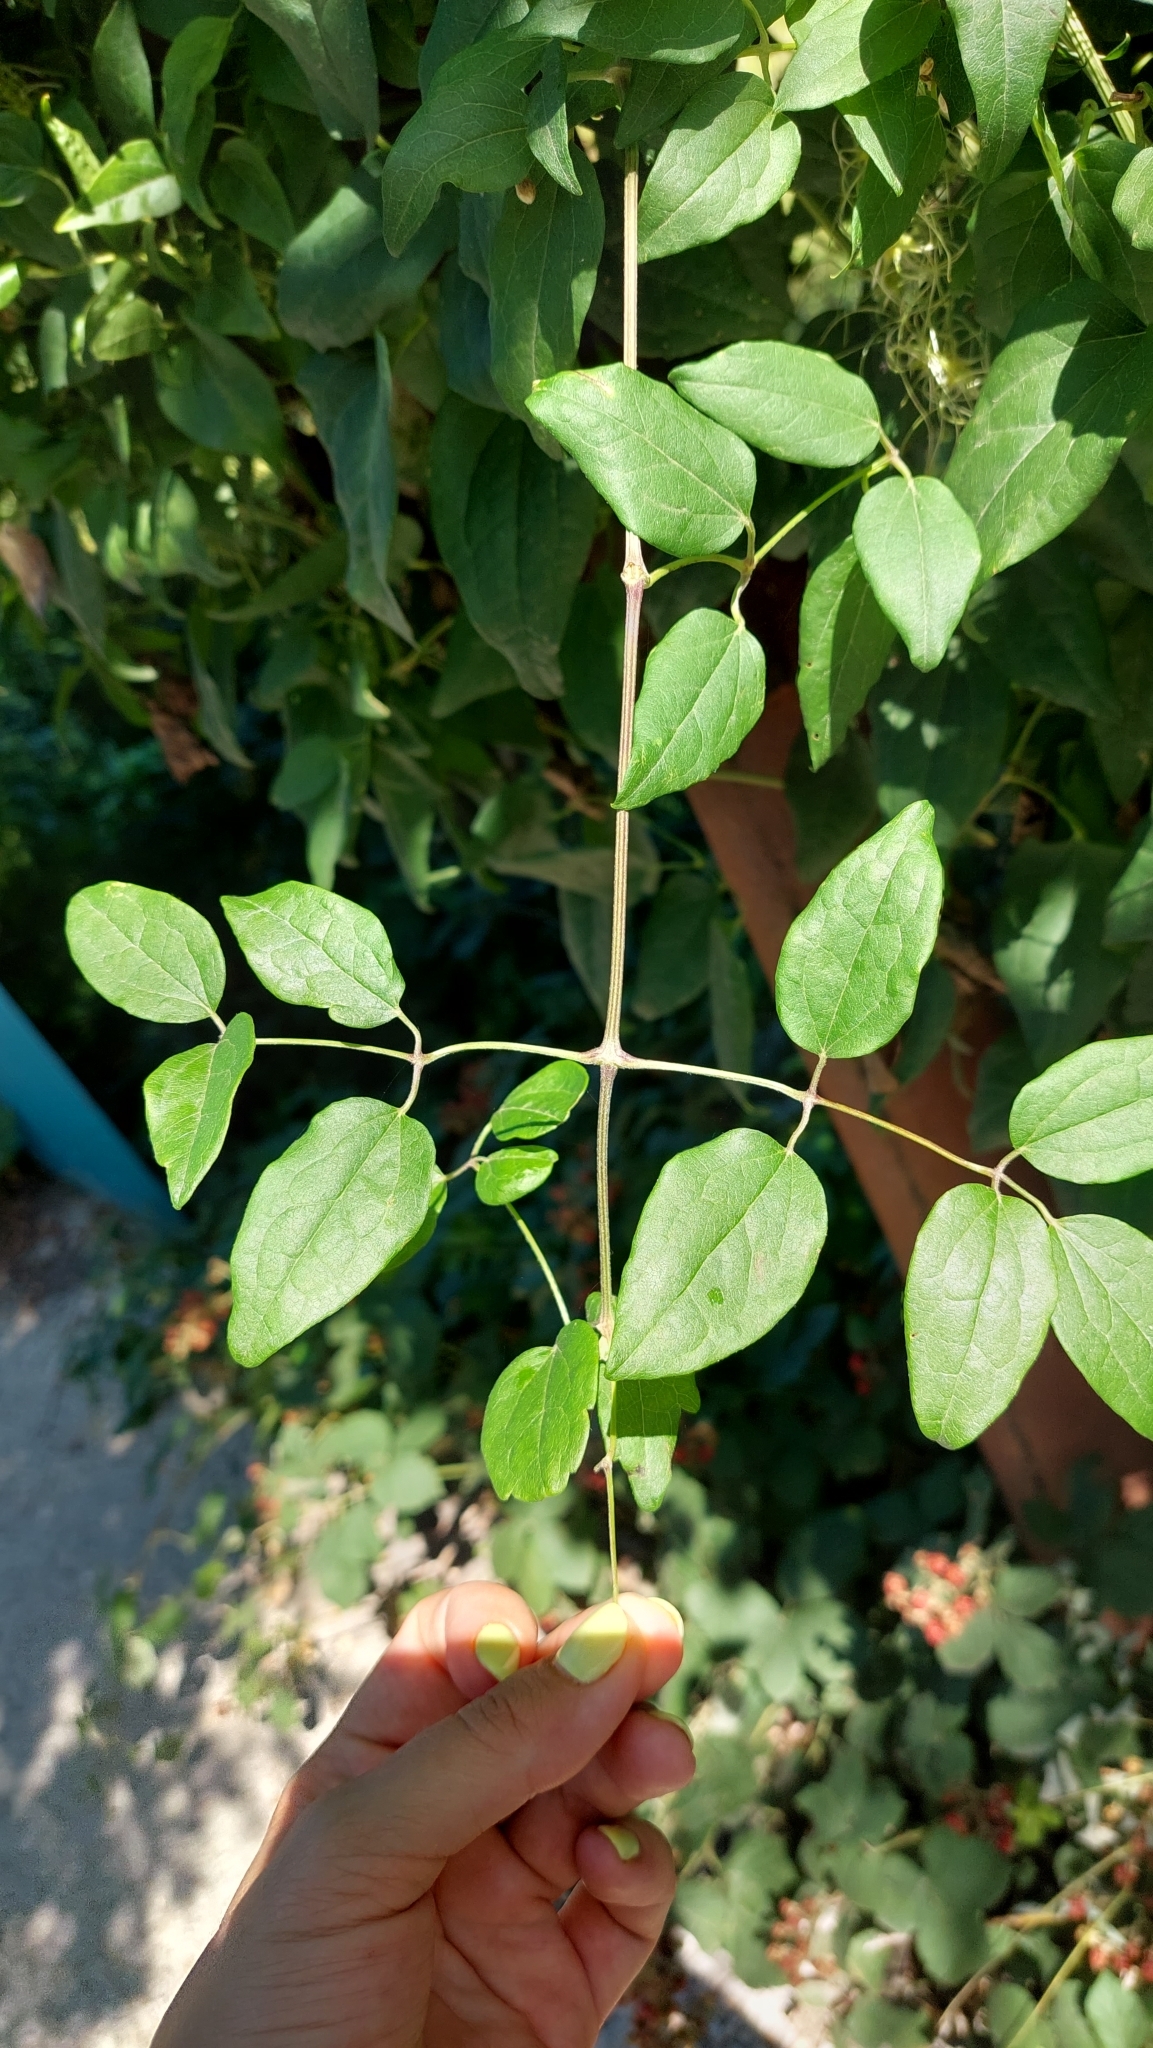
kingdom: Plantae
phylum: Tracheophyta
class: Magnoliopsida
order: Ranunculales
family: Ranunculaceae
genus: Clematis
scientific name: Clematis vitalba
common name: Evergreen clematis
